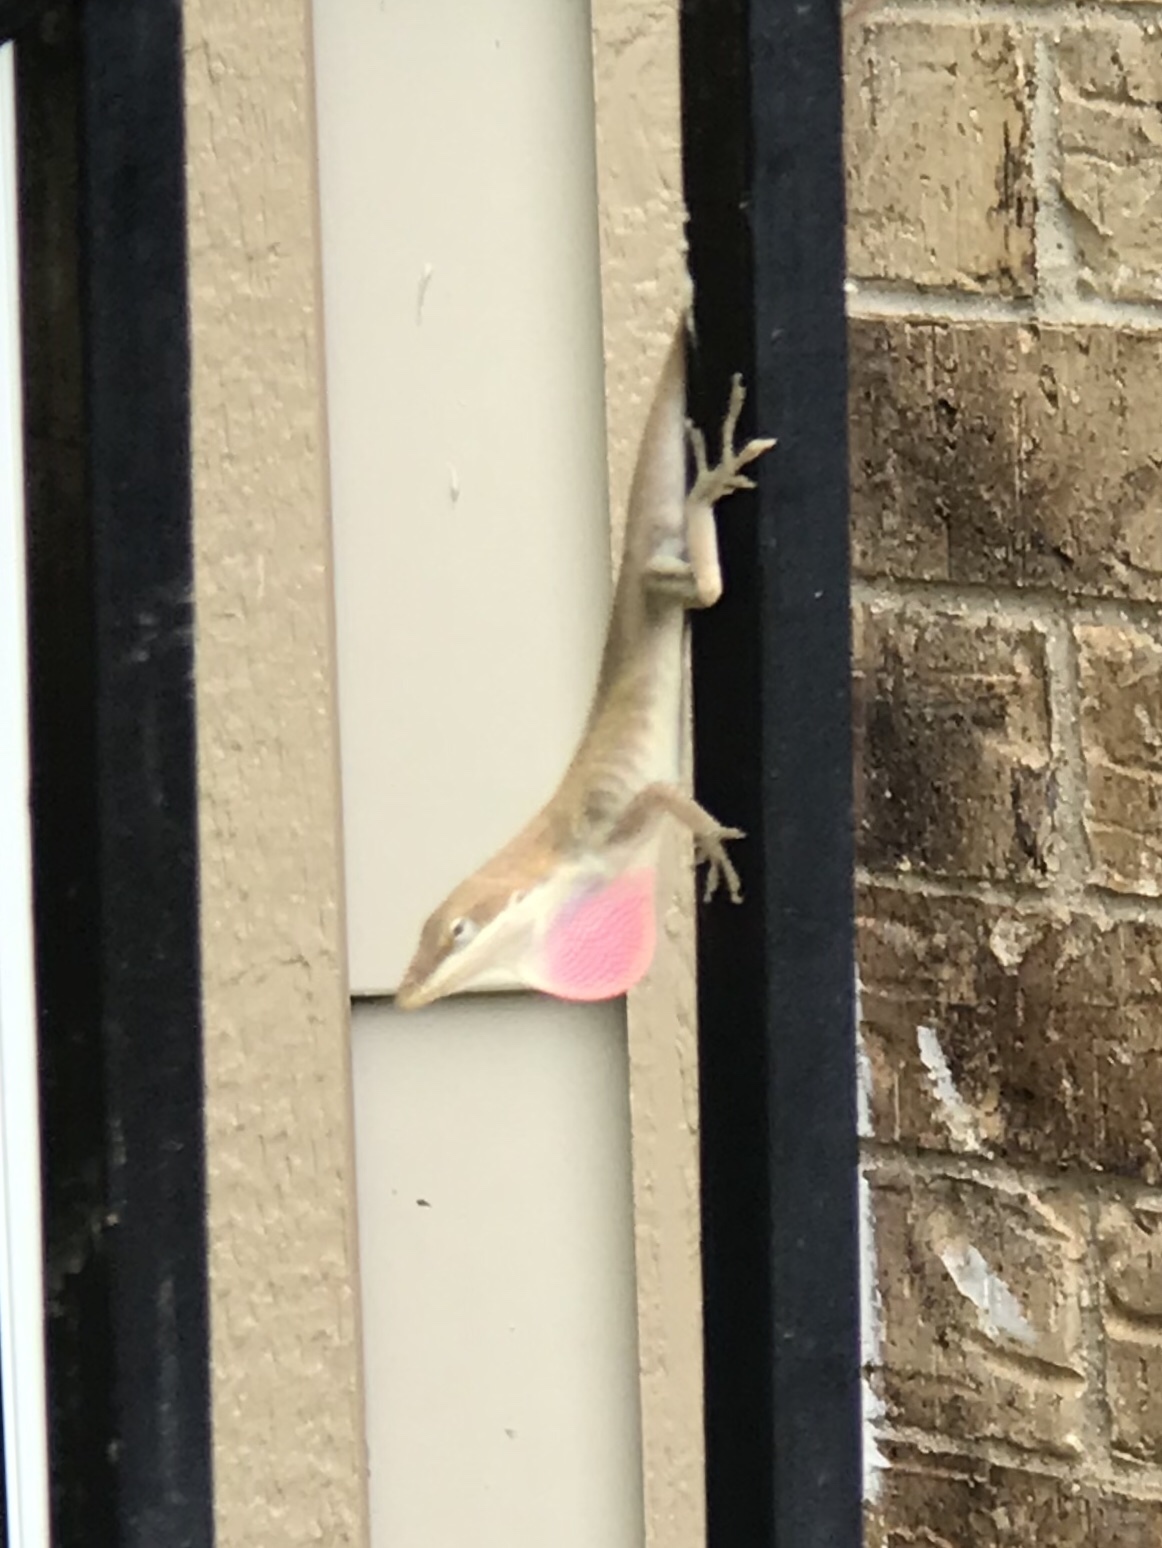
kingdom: Animalia
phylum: Chordata
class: Squamata
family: Dactyloidae
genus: Anolis
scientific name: Anolis carolinensis
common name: Green anole
